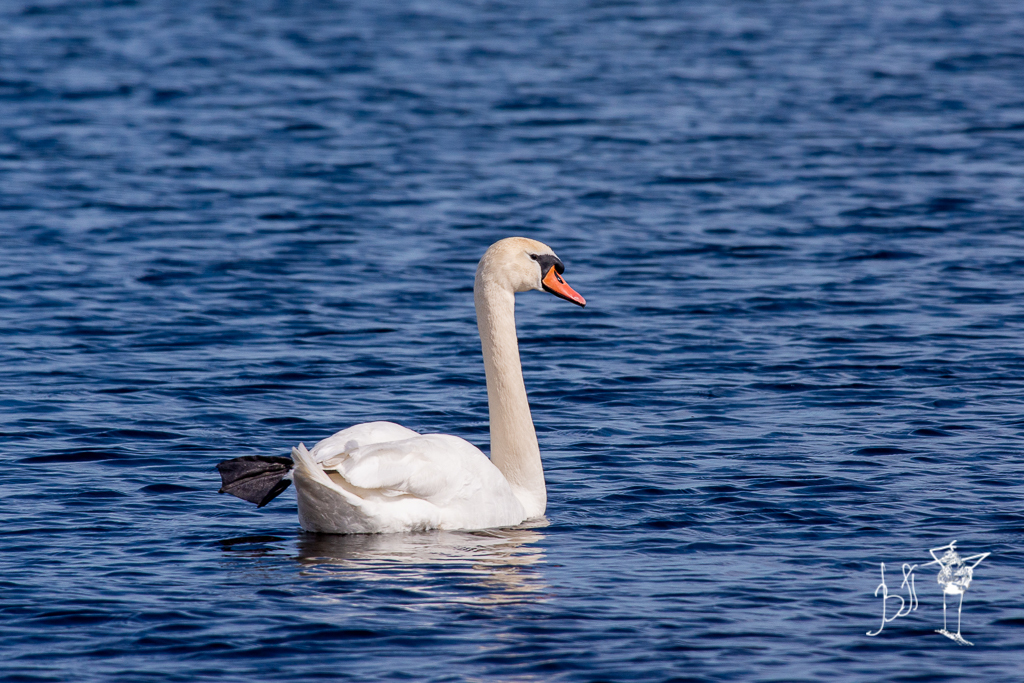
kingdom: Animalia
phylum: Chordata
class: Aves
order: Anseriformes
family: Anatidae
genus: Cygnus
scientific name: Cygnus olor
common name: Mute swan
